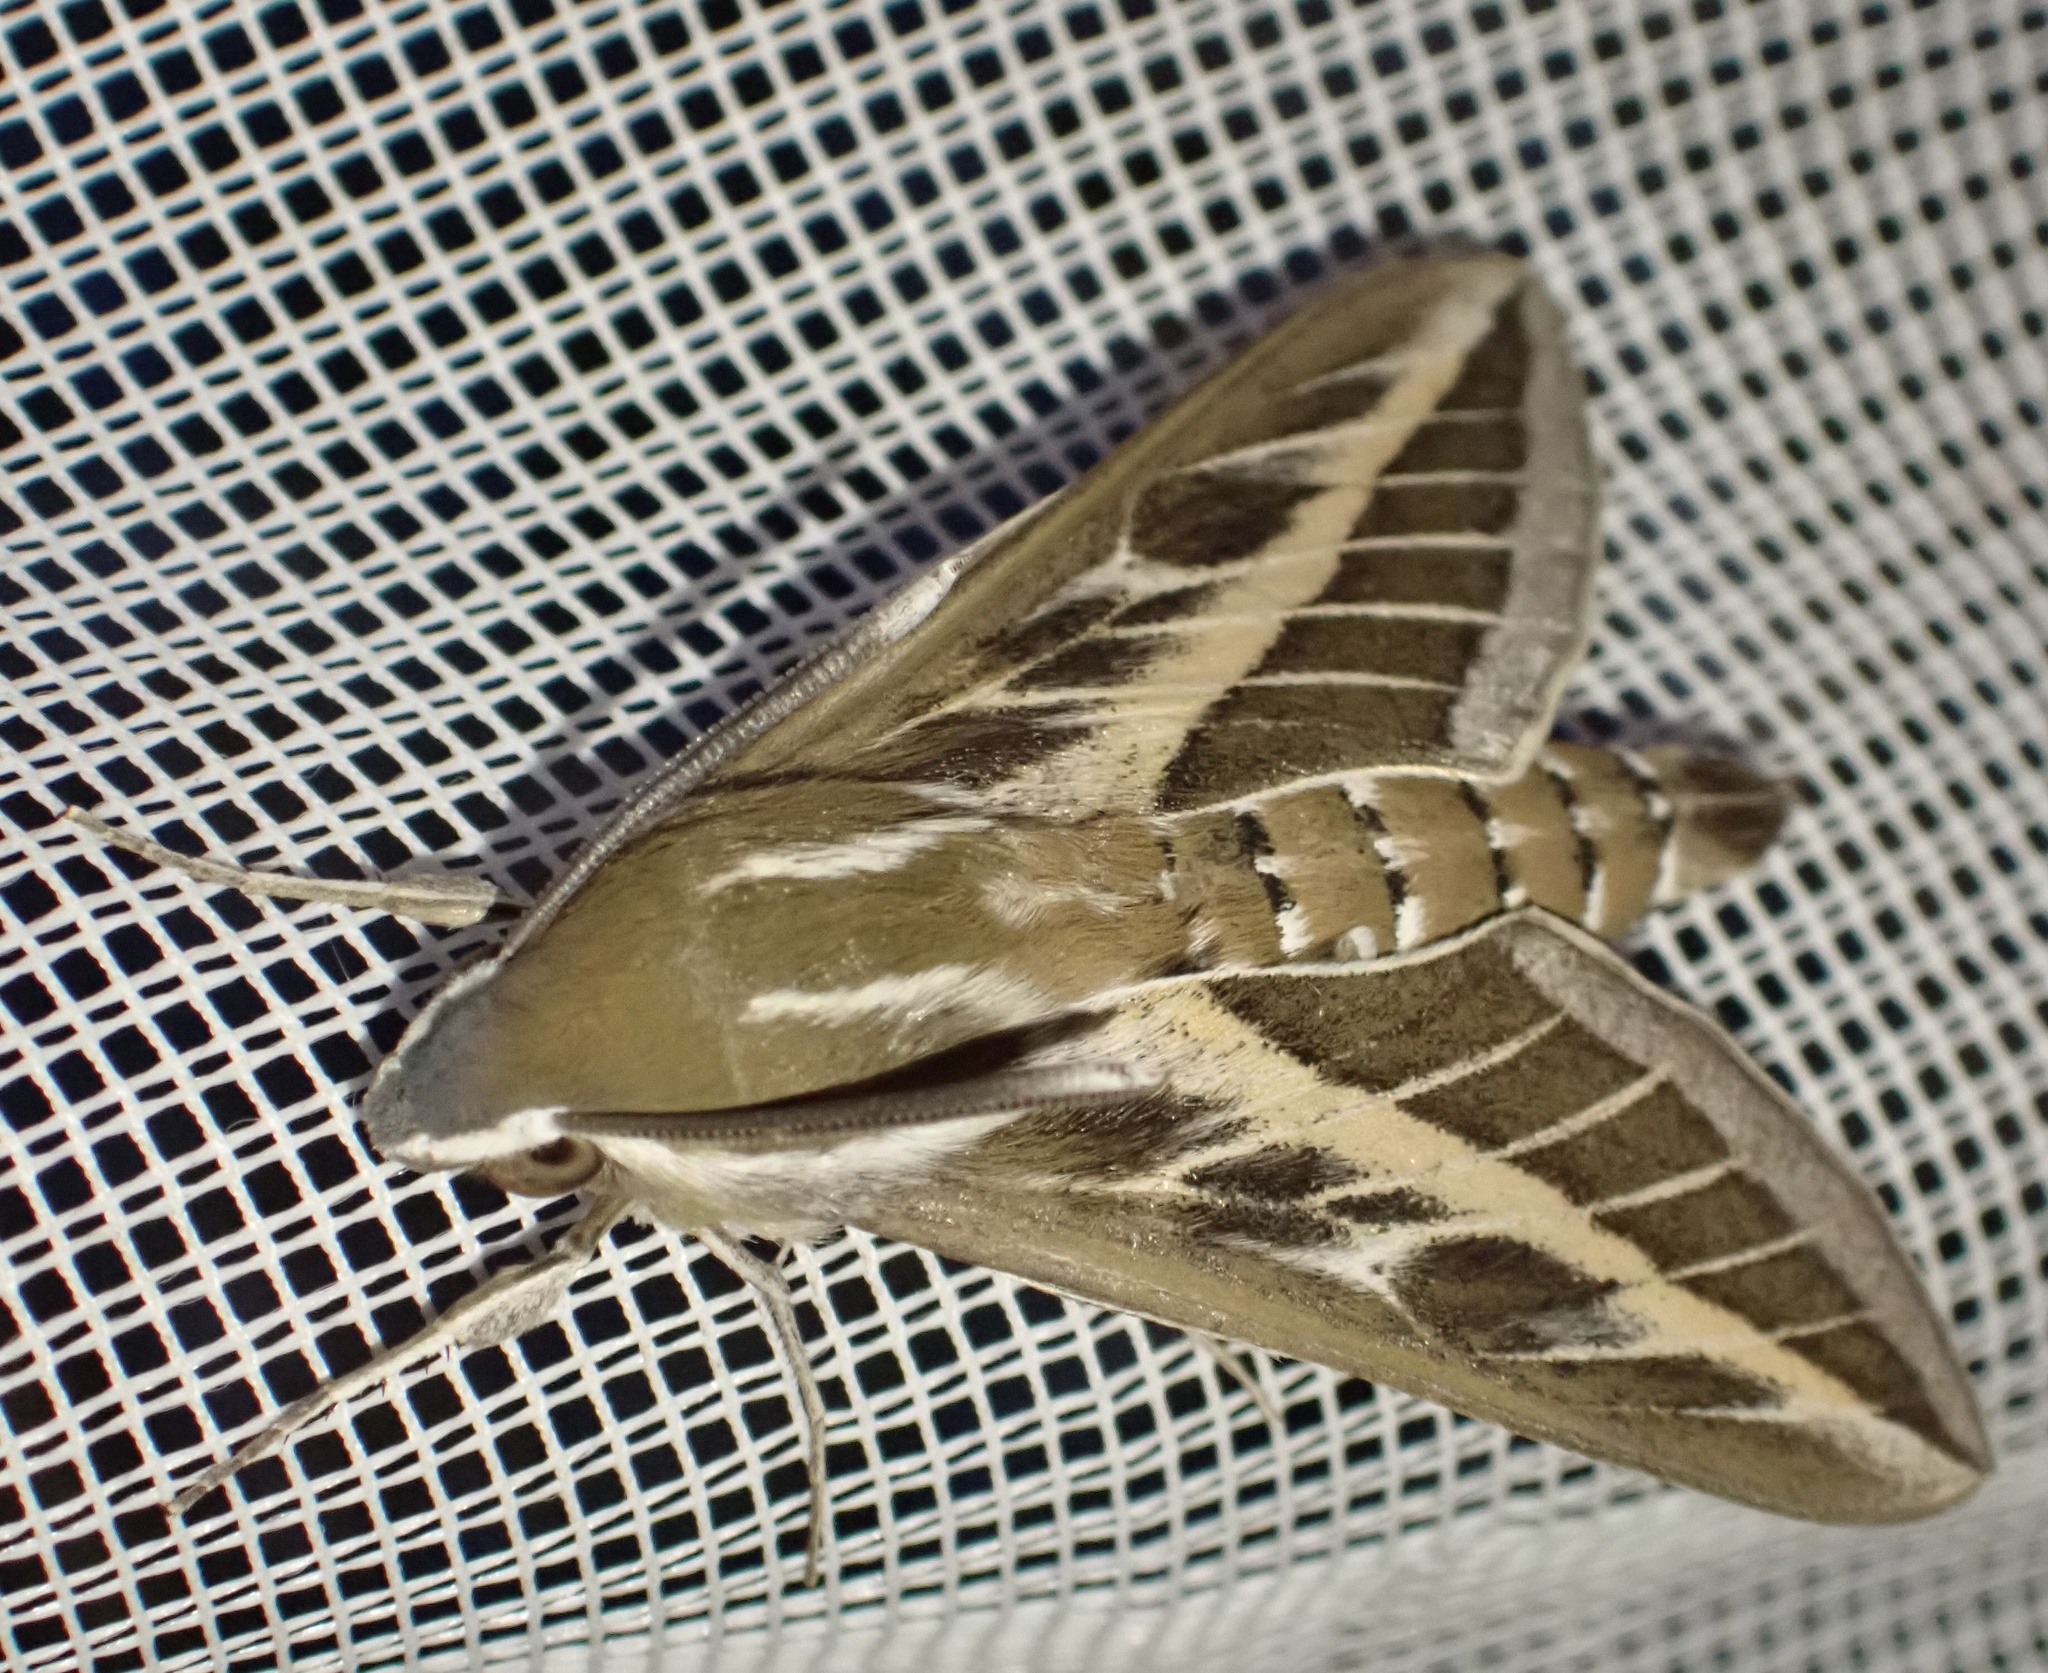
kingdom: Animalia
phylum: Arthropoda
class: Insecta
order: Lepidoptera
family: Sphingidae
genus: Hyles
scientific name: Hyles livornica
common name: Striped hawk-moth
